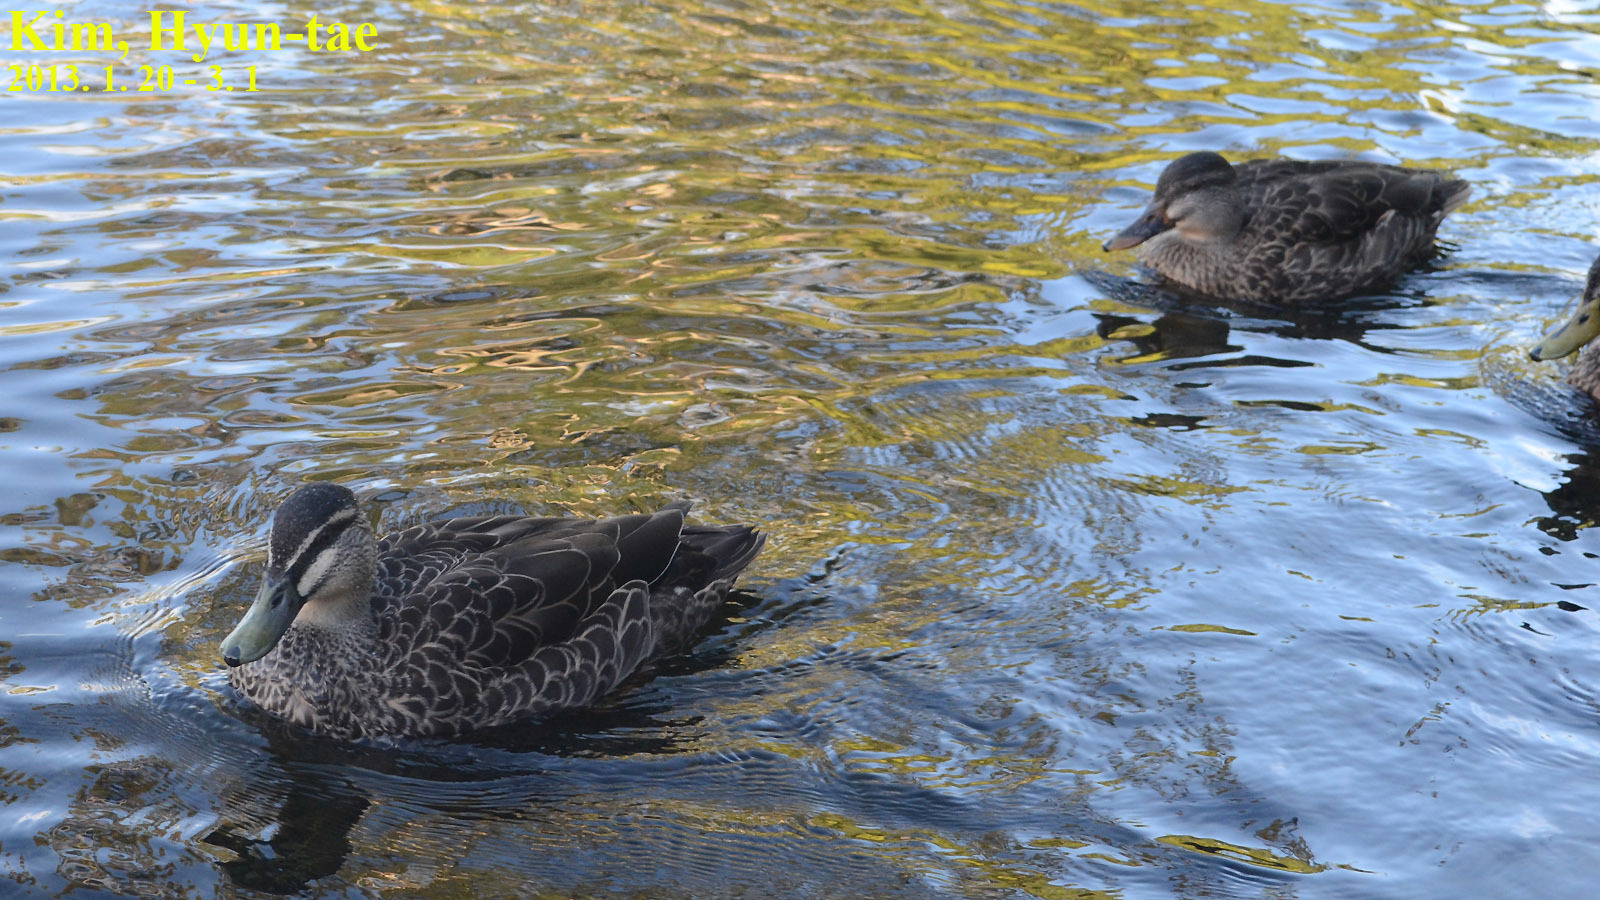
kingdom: Animalia
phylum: Chordata
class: Aves
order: Anseriformes
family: Anatidae
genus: Anas
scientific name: Anas
